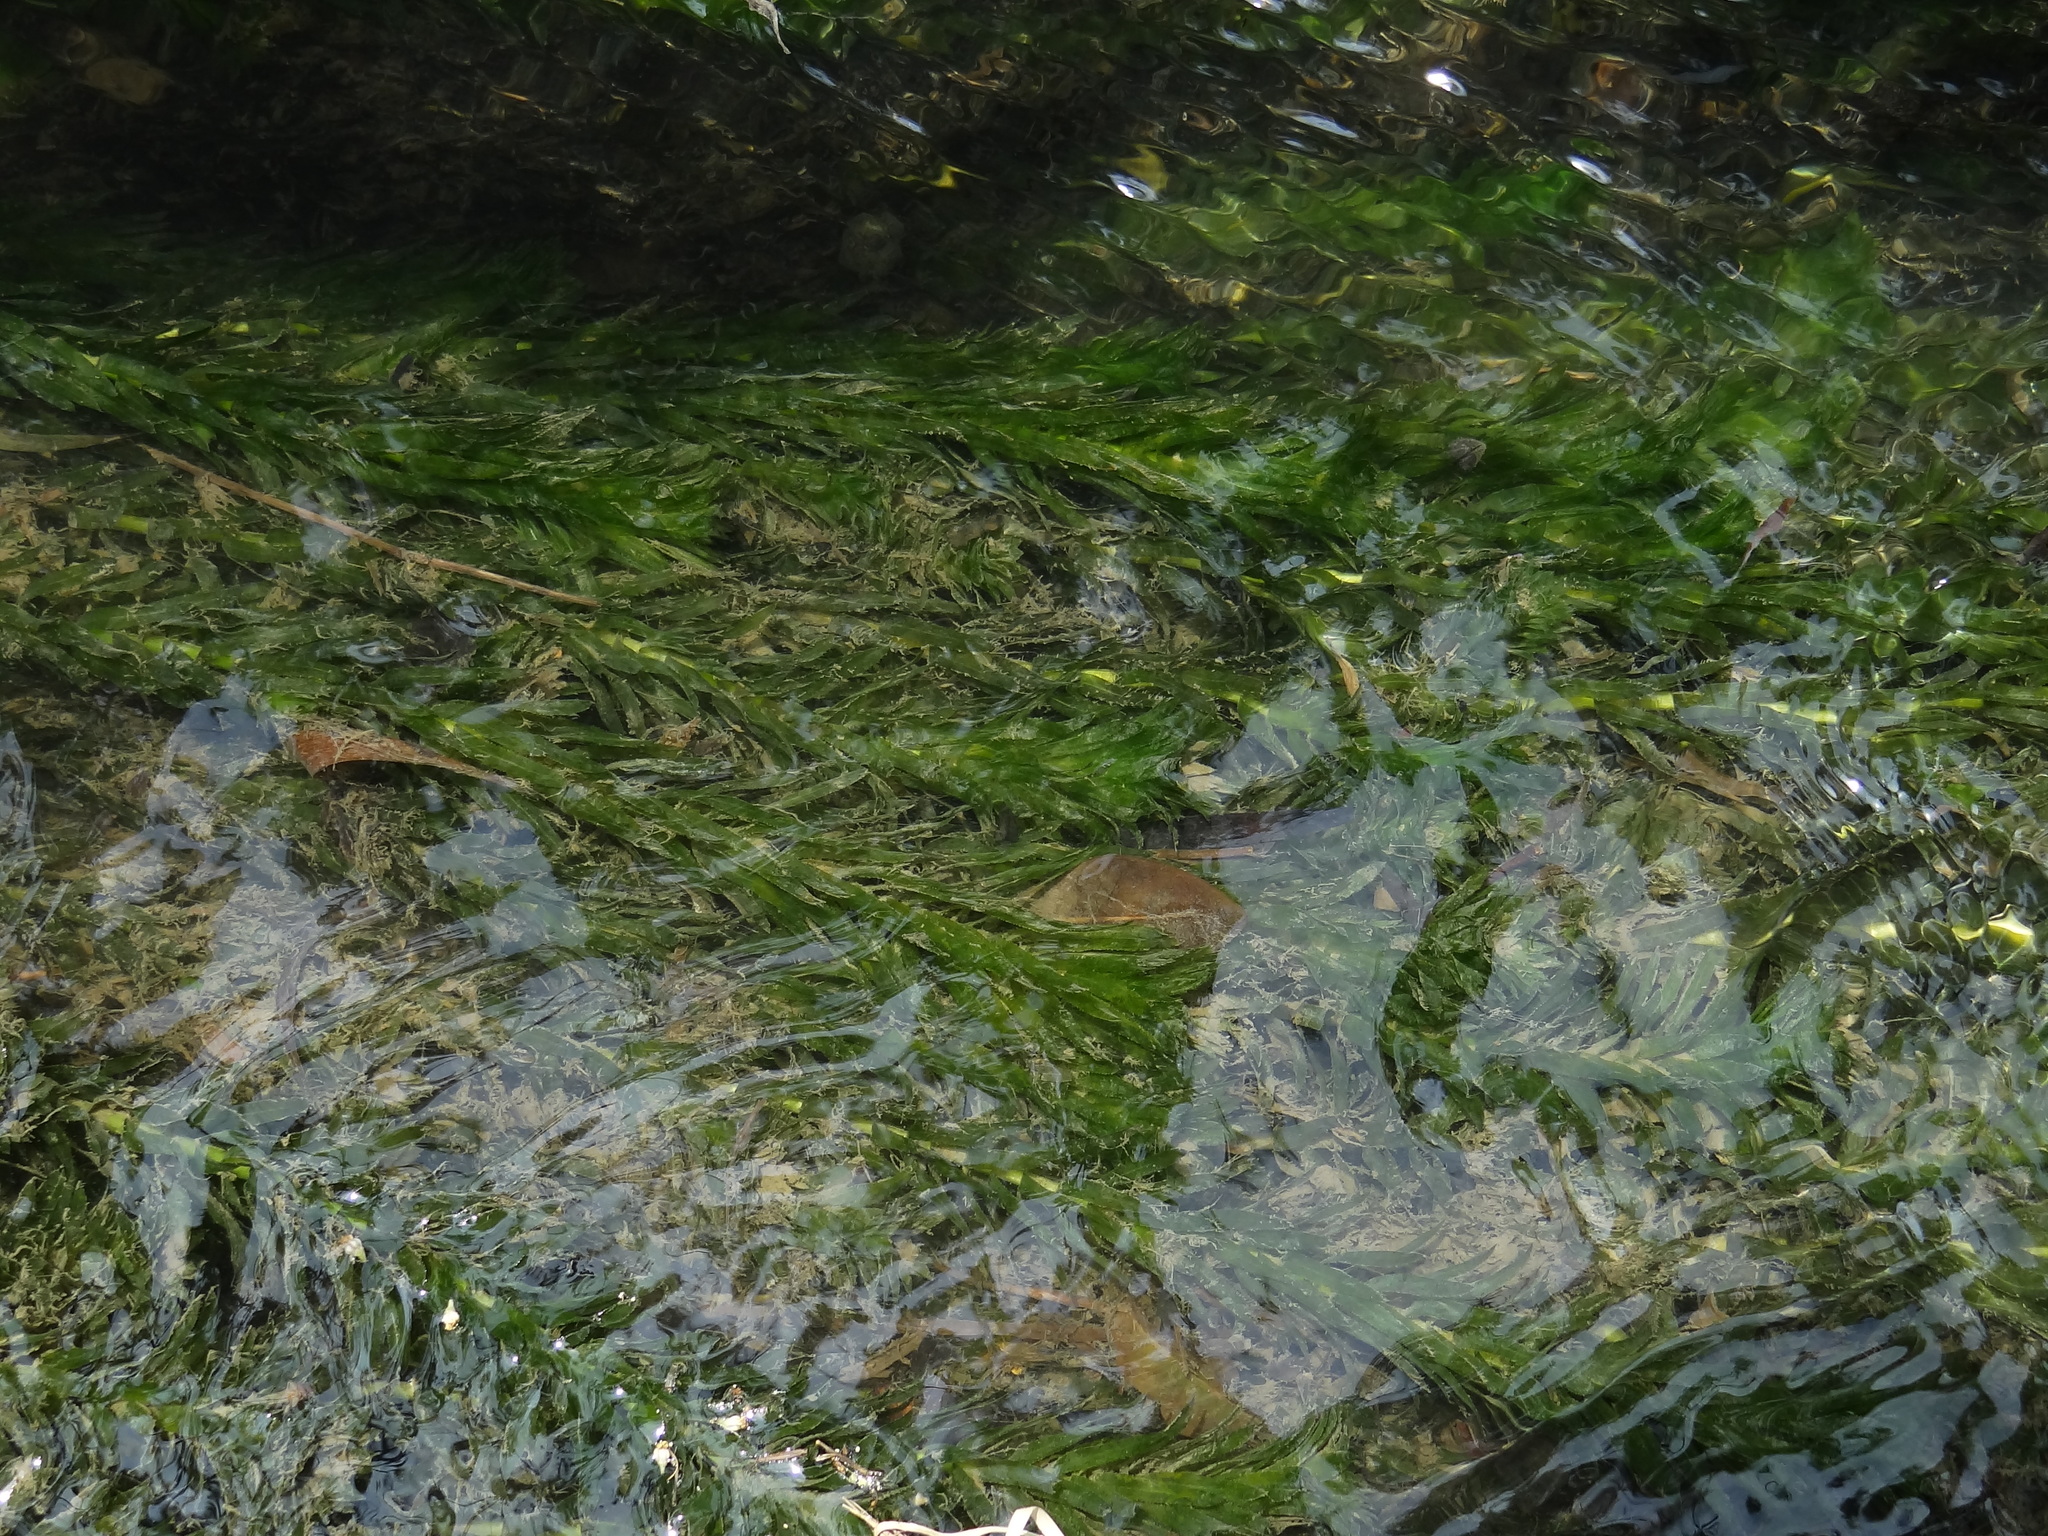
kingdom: Plantae
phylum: Tracheophyta
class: Liliopsida
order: Alismatales
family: Hydrocharitaceae
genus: Elodea
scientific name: Elodea densa
